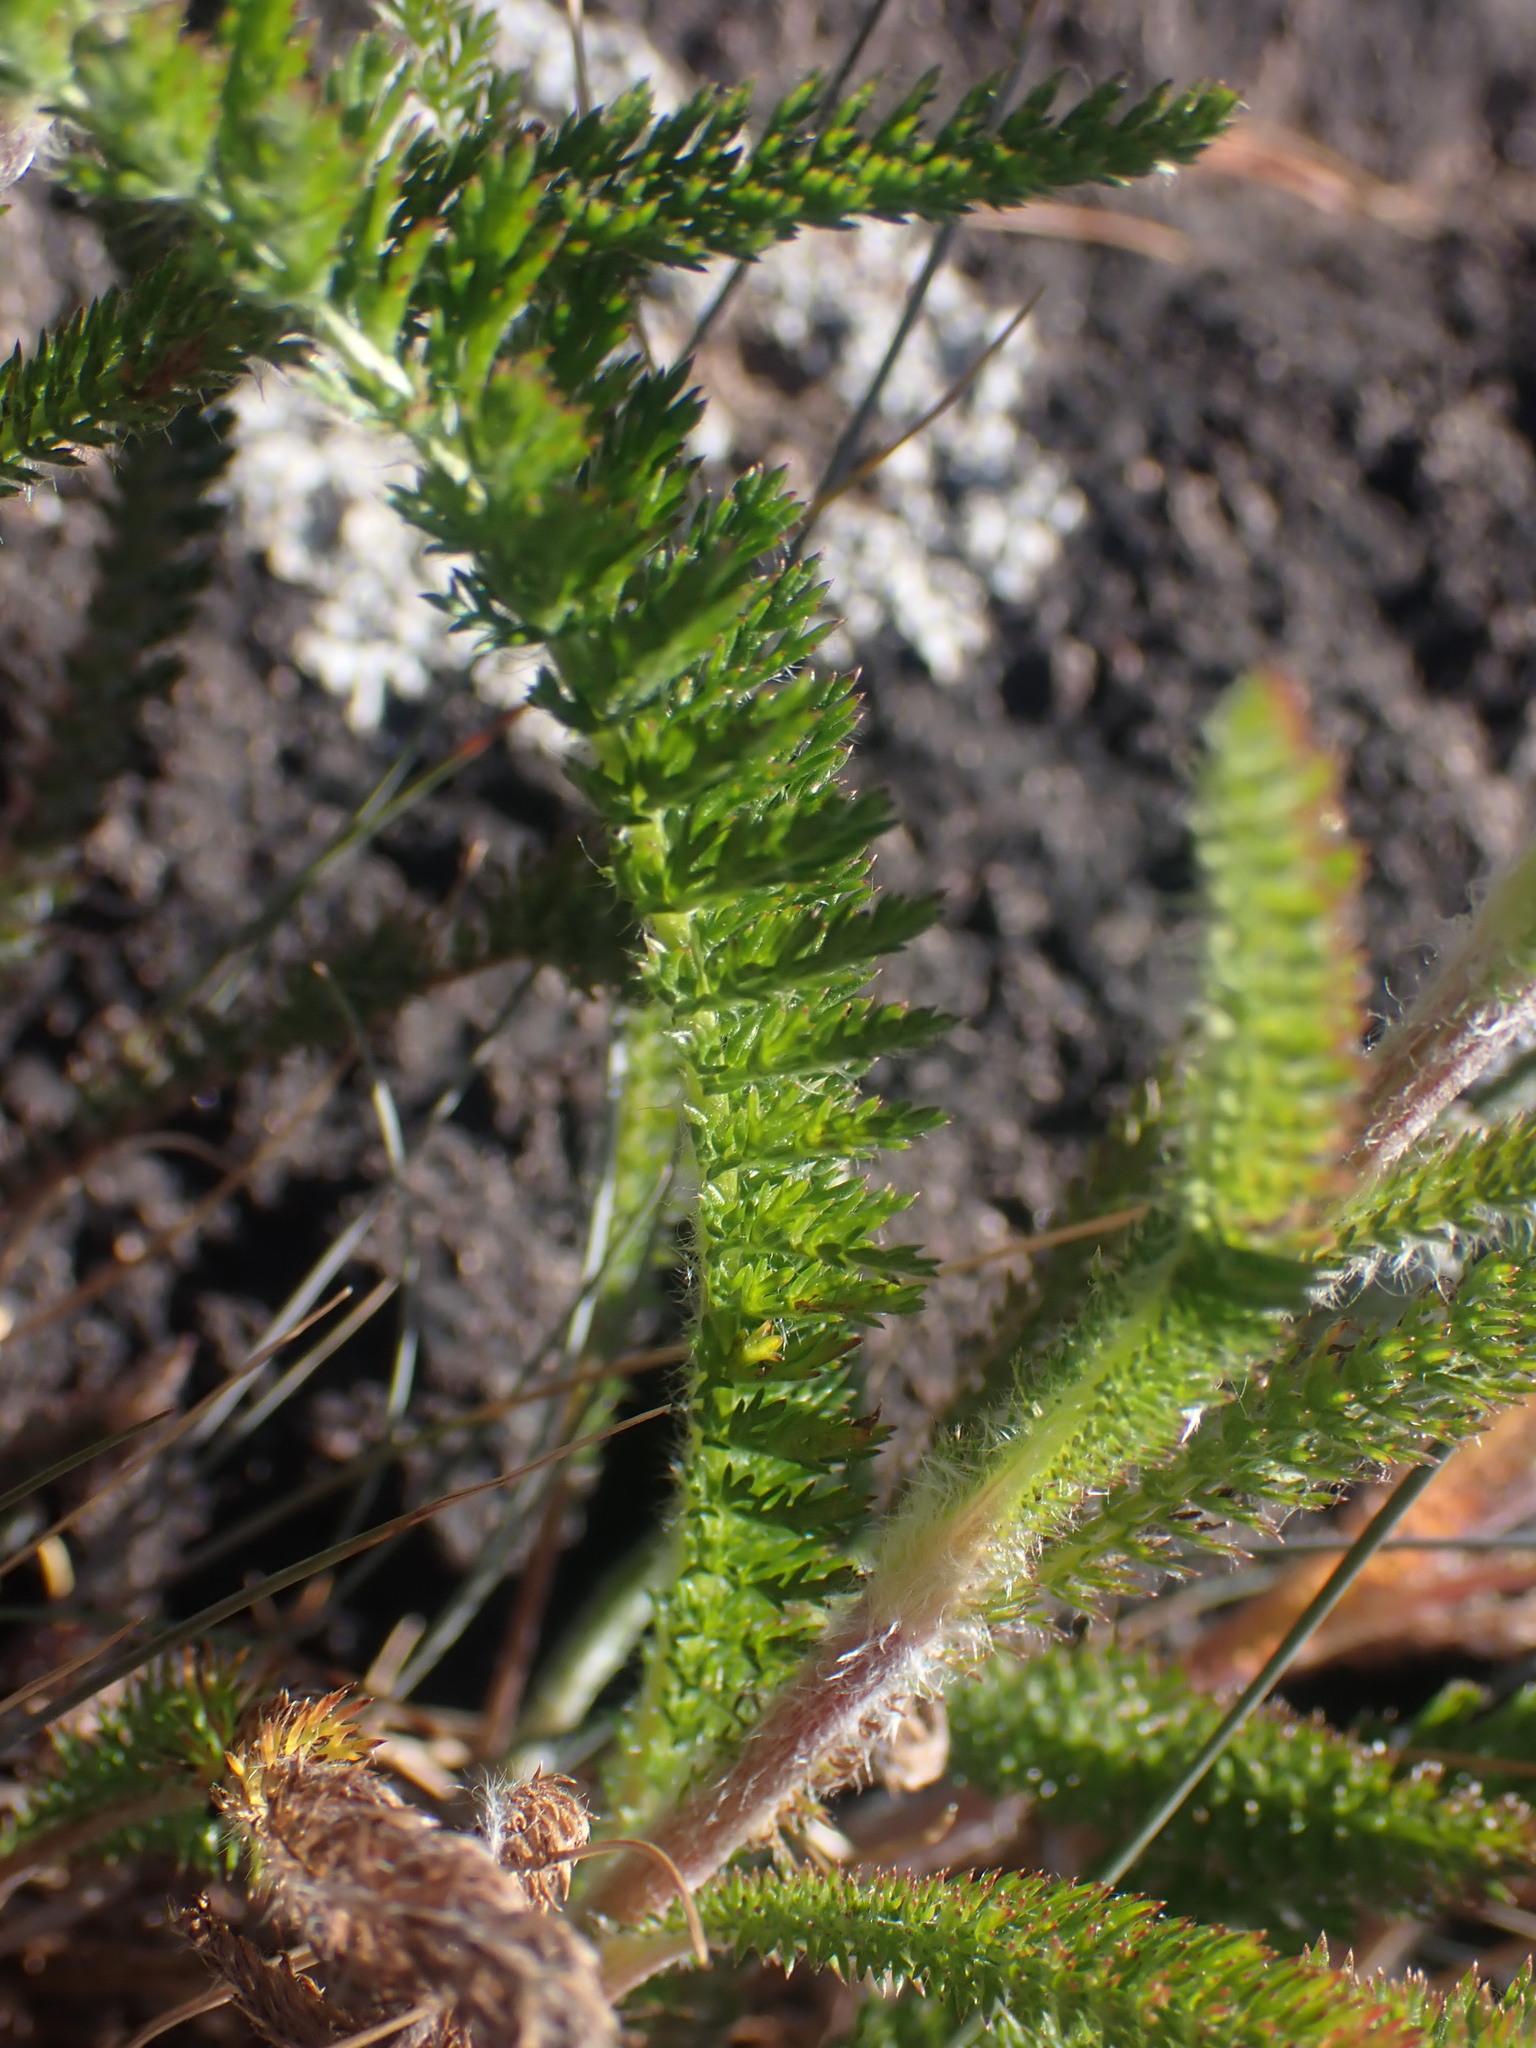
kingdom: Plantae
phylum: Tracheophyta
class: Magnoliopsida
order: Asterales
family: Asteraceae
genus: Achillea
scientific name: Achillea millefolium
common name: Yarrow
